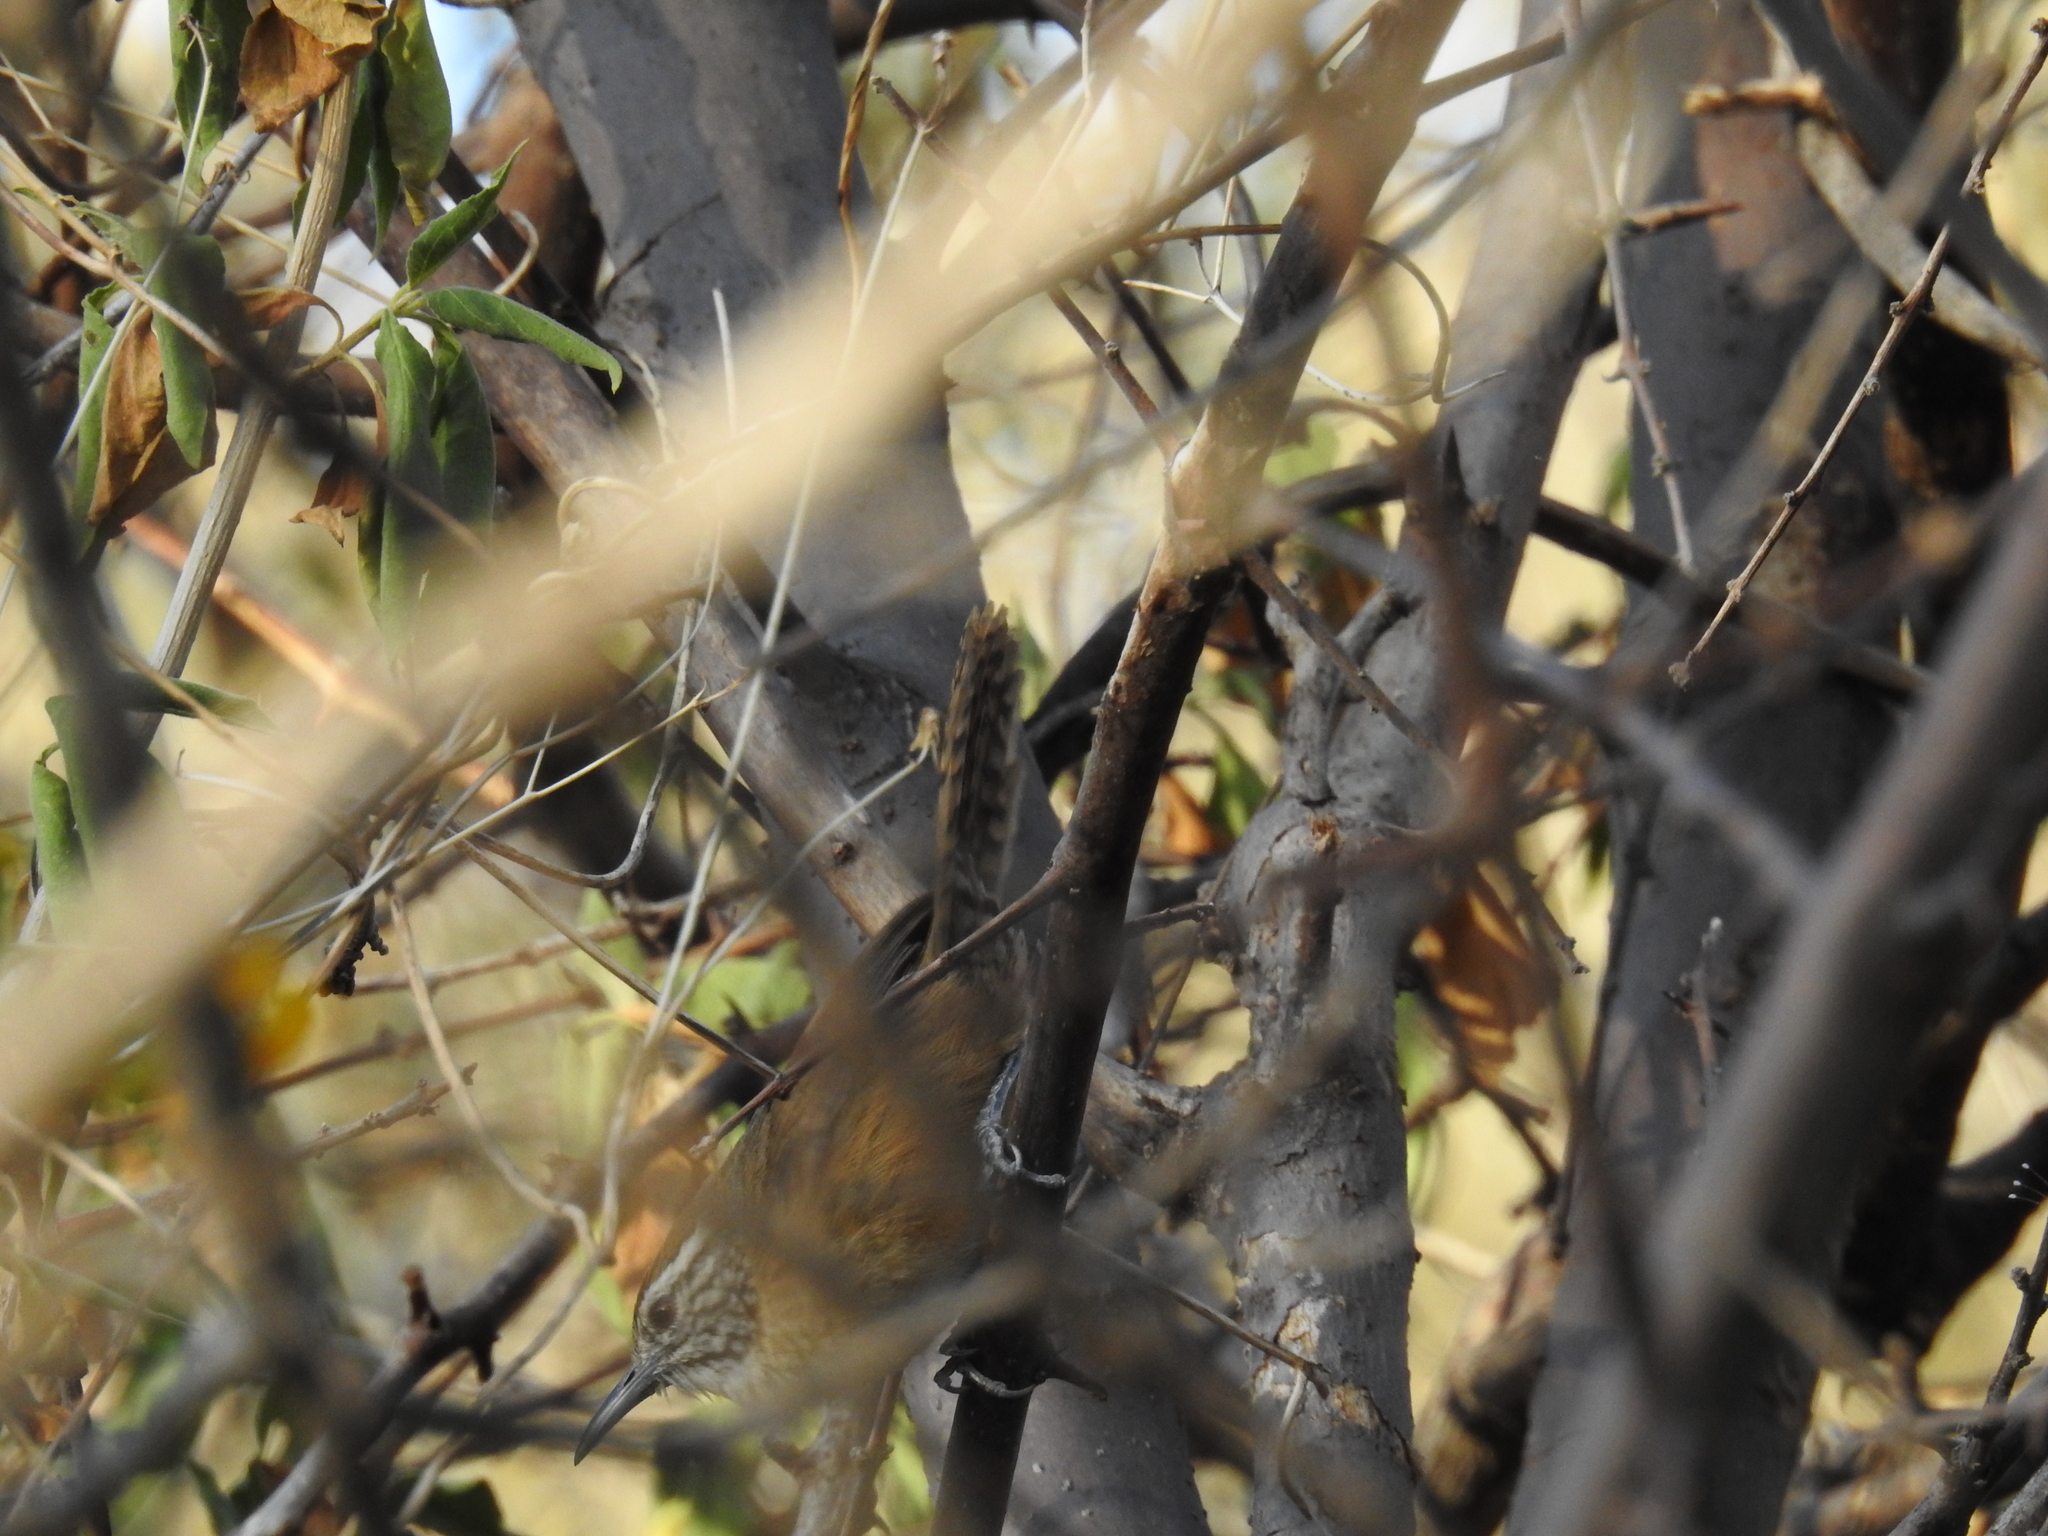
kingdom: Animalia
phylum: Chordata
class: Aves
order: Passeriformes
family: Troglodytidae
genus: Pheugopedius
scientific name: Pheugopedius felix
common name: Happy wren
